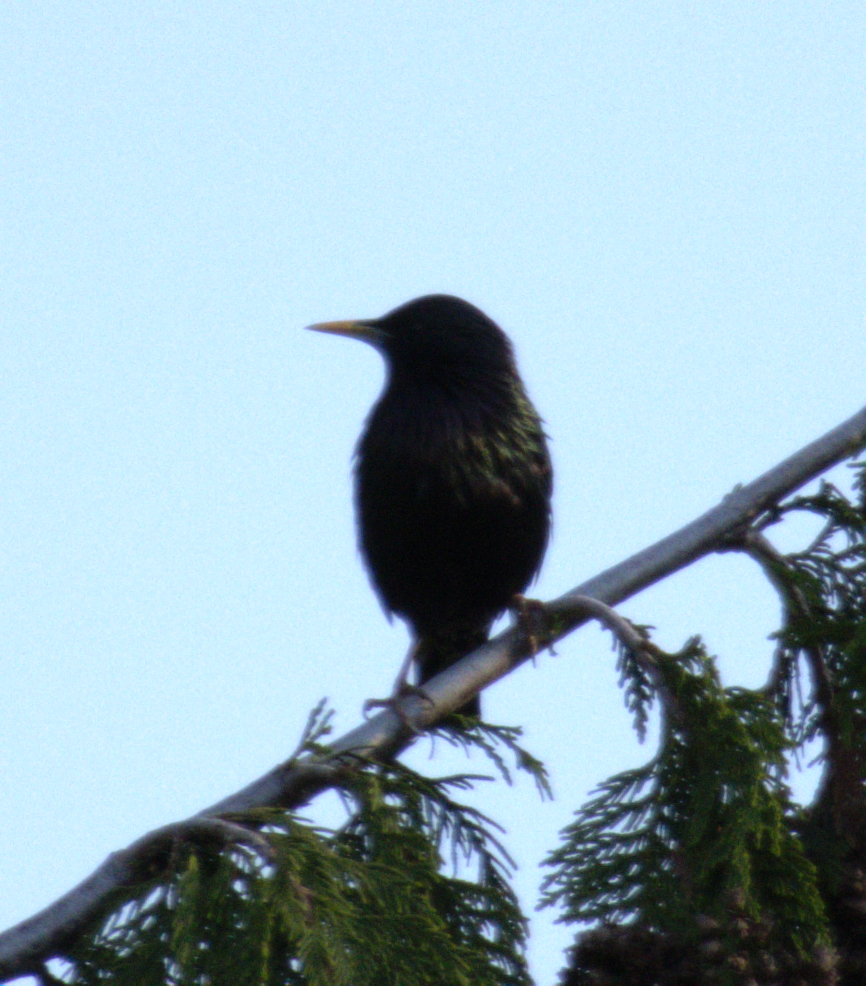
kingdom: Animalia
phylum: Chordata
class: Aves
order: Passeriformes
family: Sturnidae
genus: Sturnus
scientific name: Sturnus vulgaris
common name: Common starling
